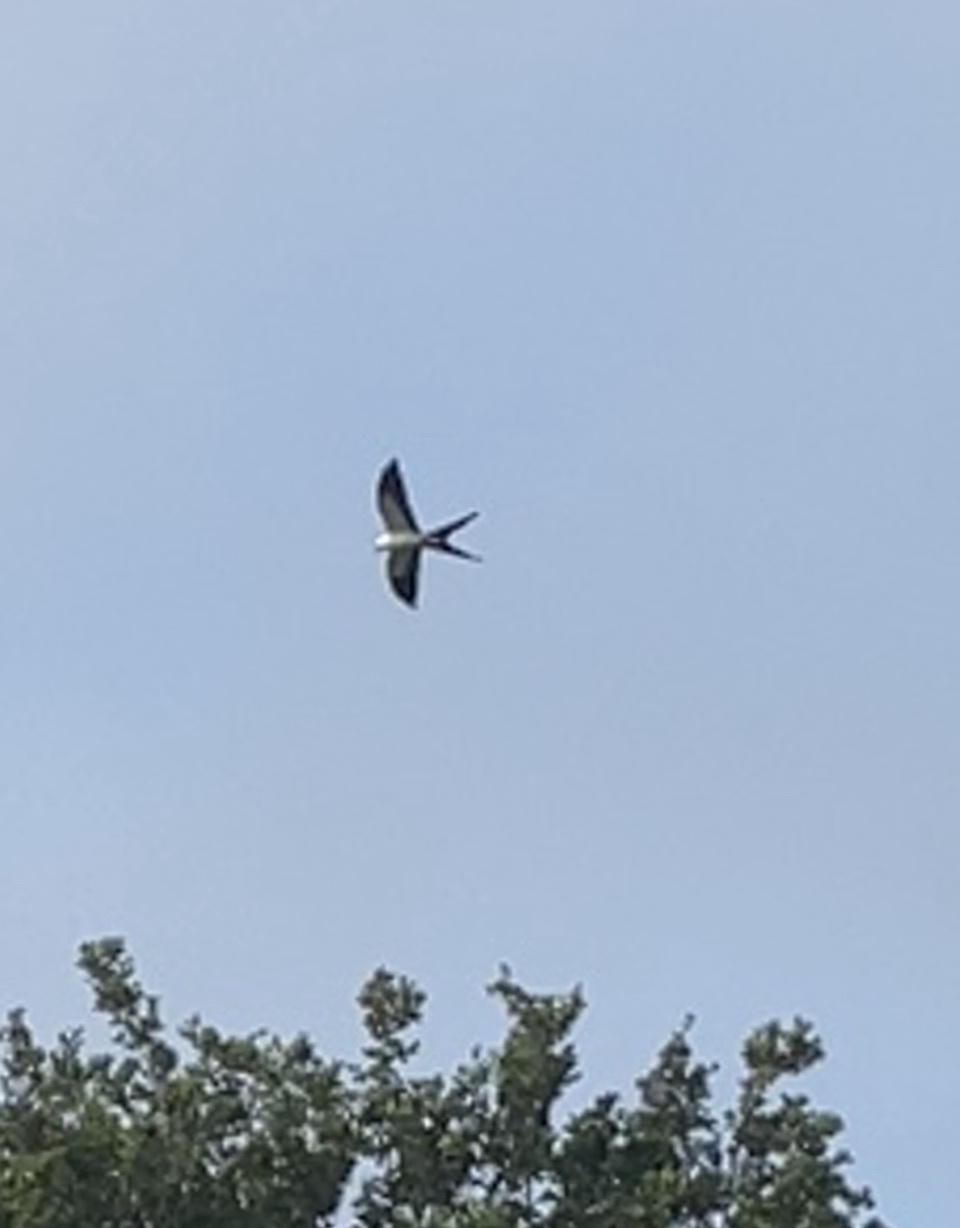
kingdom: Animalia
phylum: Chordata
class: Aves
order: Accipitriformes
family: Accipitridae
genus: Elanoides
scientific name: Elanoides forficatus
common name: Swallow-tailed kite
